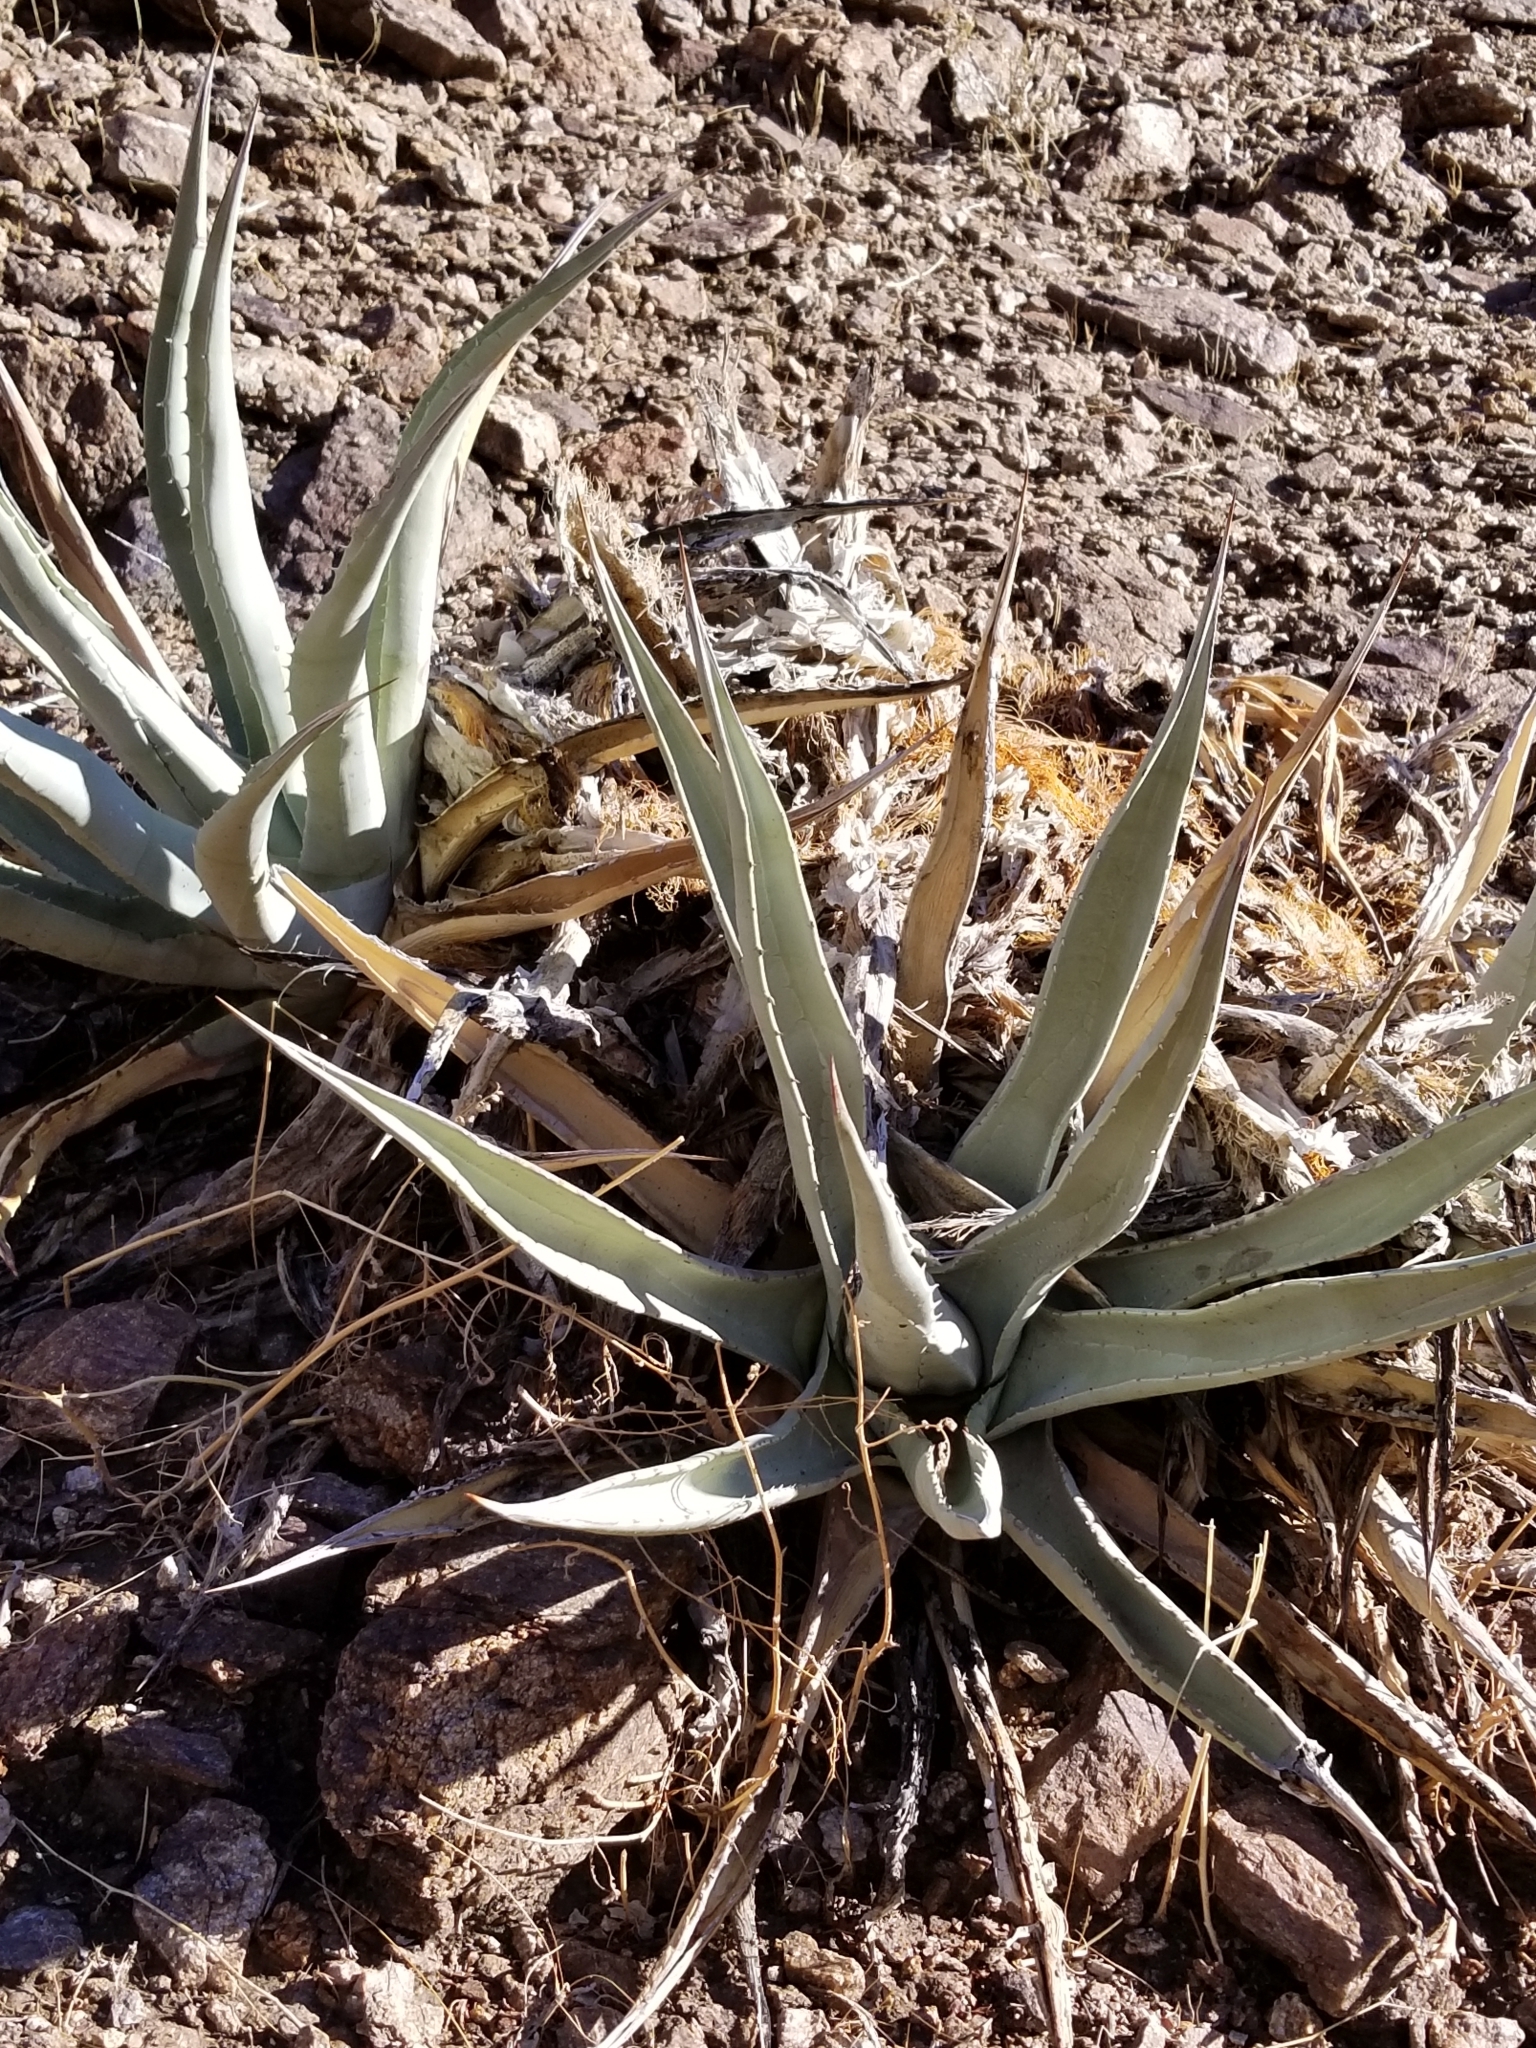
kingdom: Plantae
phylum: Tracheophyta
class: Liliopsida
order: Asparagales
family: Asparagaceae
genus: Agave
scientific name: Agave deserti
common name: Desert agave
